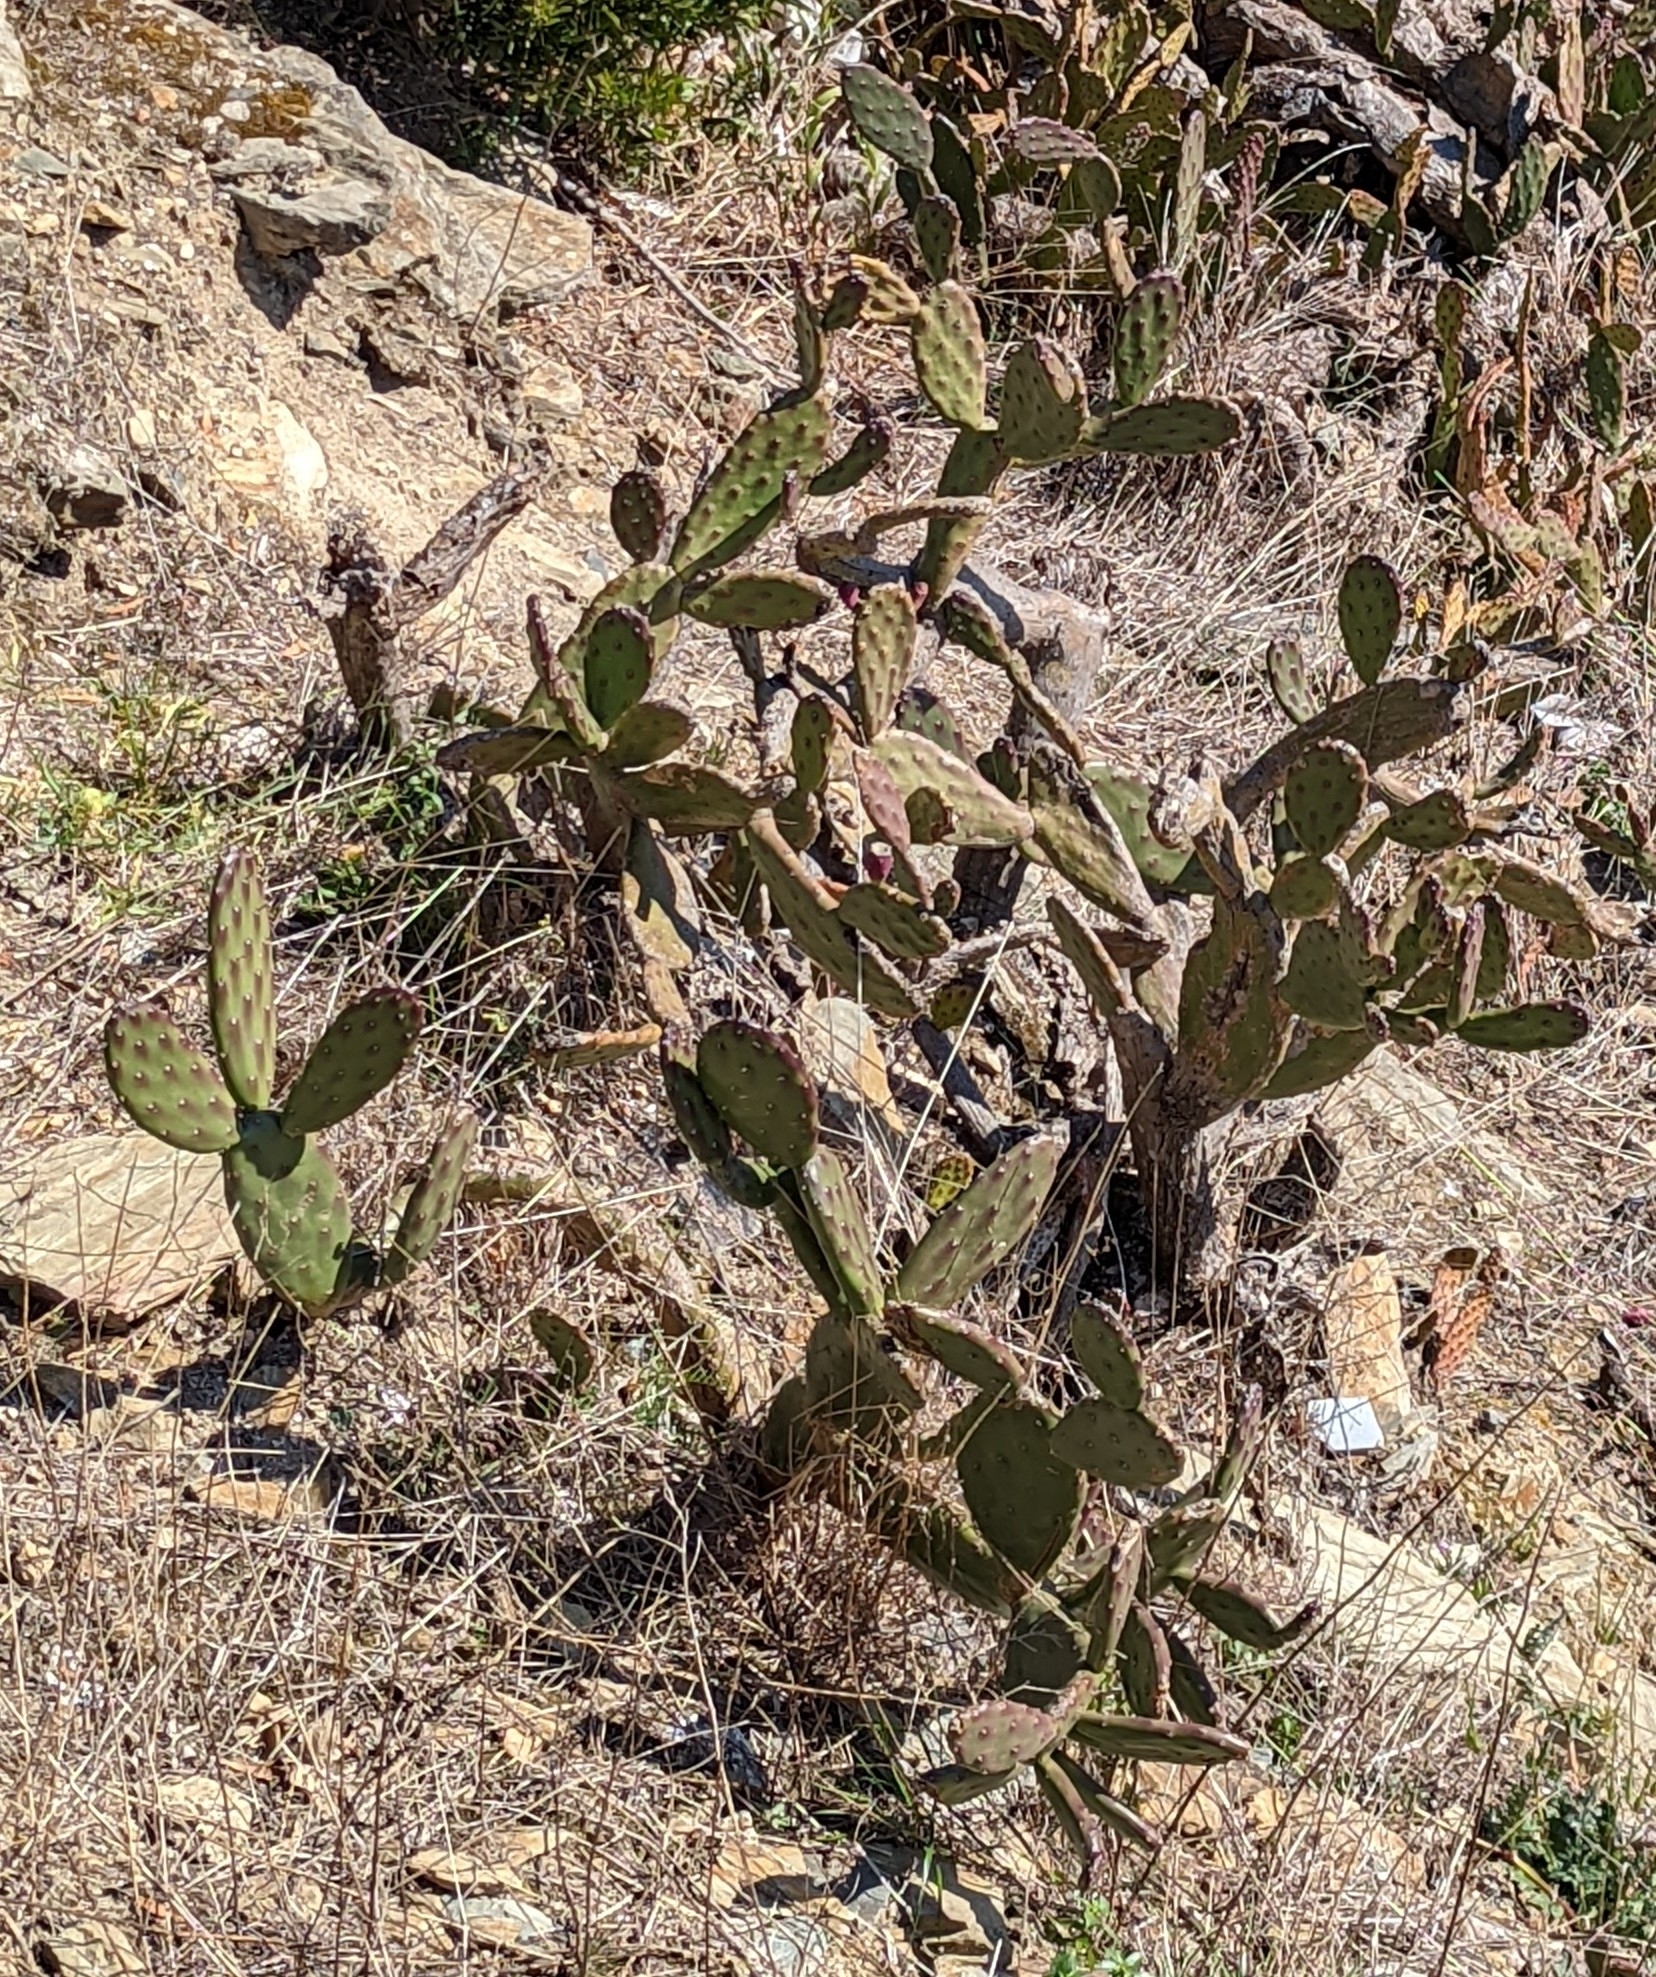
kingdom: Plantae
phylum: Tracheophyta
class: Magnoliopsida
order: Caryophyllales
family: Cactaceae
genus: Opuntia
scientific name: Opuntia elata
